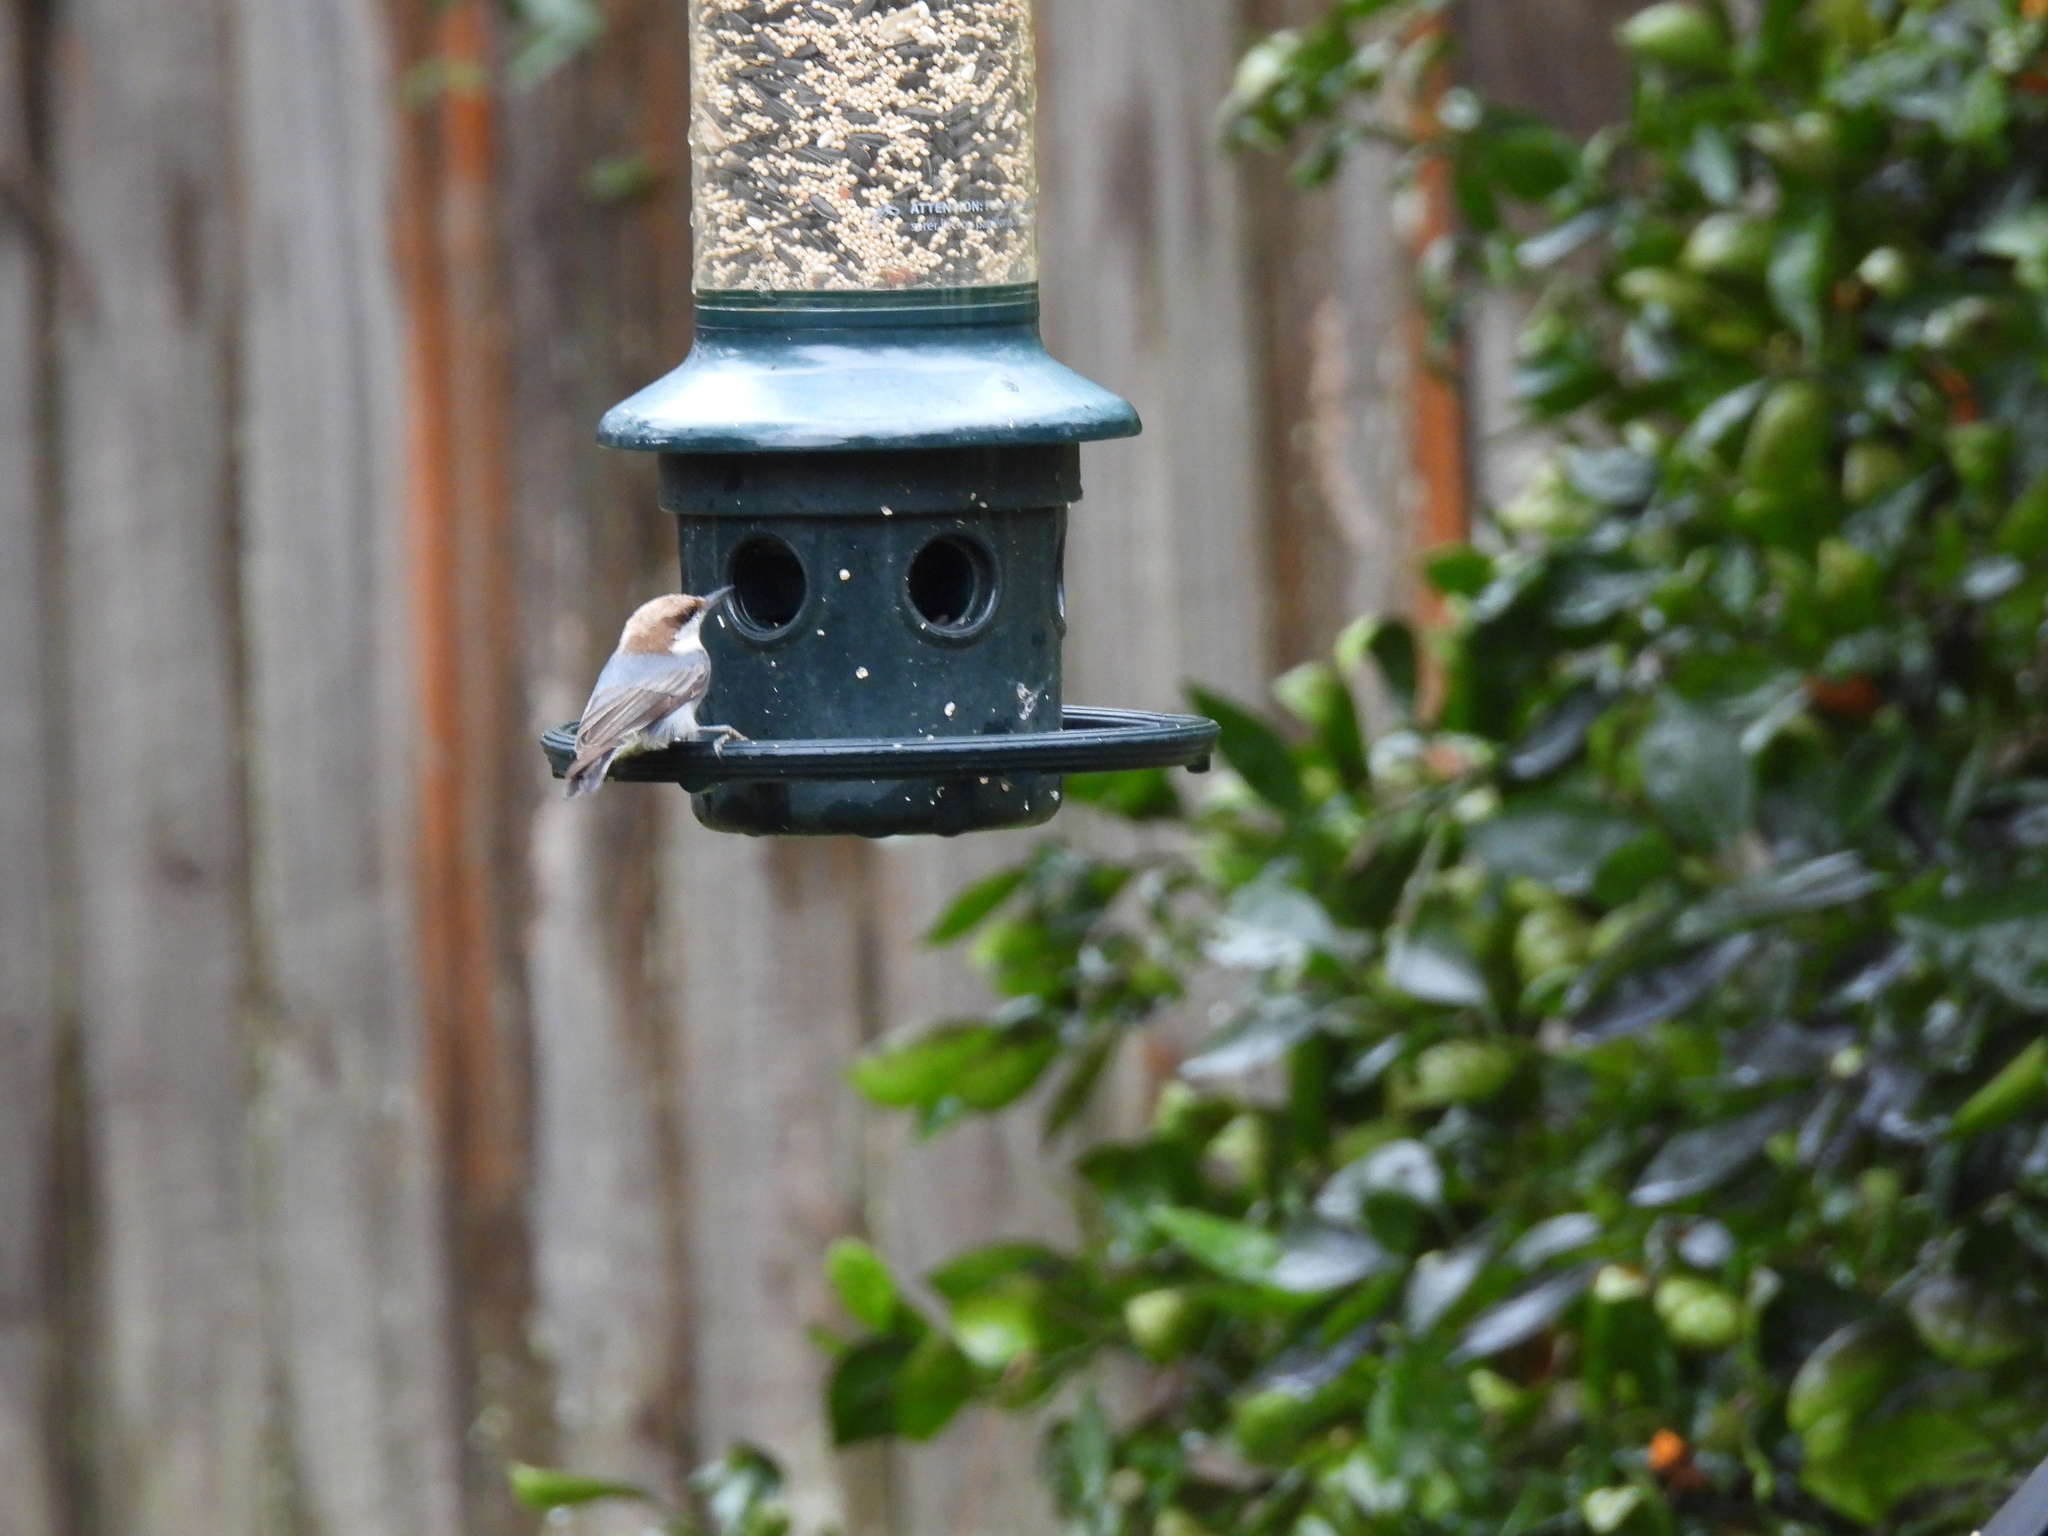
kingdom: Animalia
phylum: Chordata
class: Aves
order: Passeriformes
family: Sittidae
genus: Sitta
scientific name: Sitta pusilla
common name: Brown-headed nuthatch
